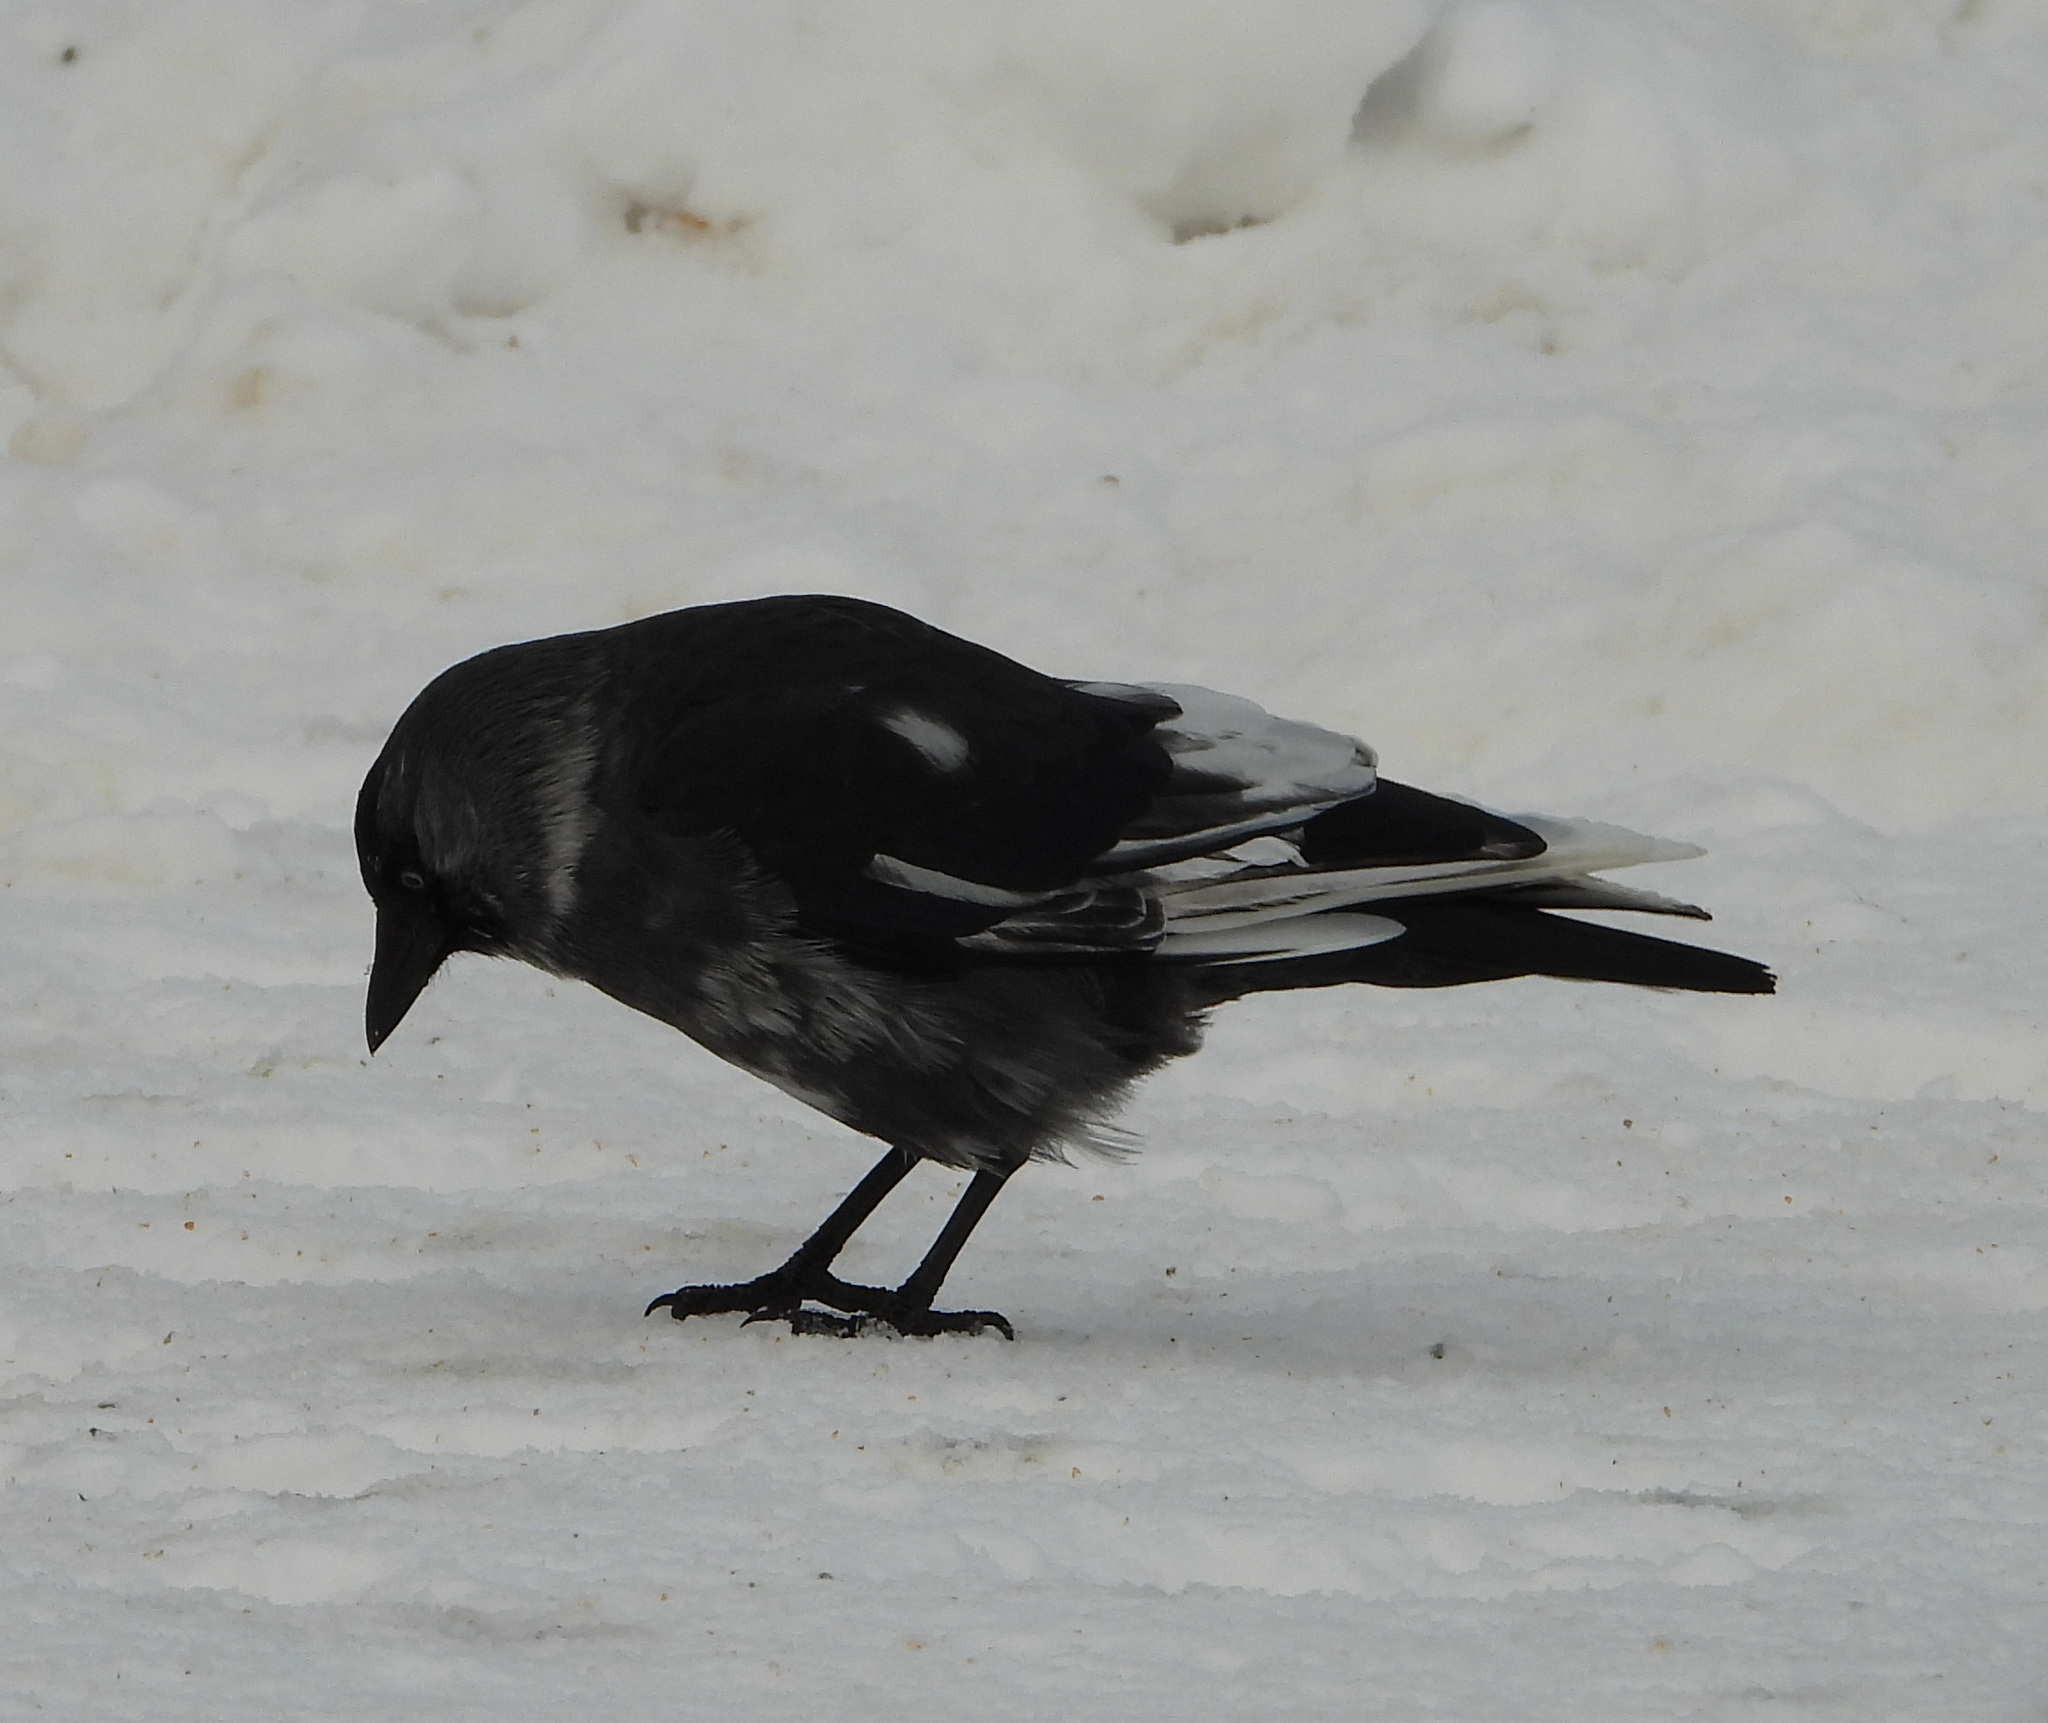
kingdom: Animalia
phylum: Chordata
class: Aves
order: Passeriformes
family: Corvidae
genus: Coloeus
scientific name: Coloeus monedula
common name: Western jackdaw
